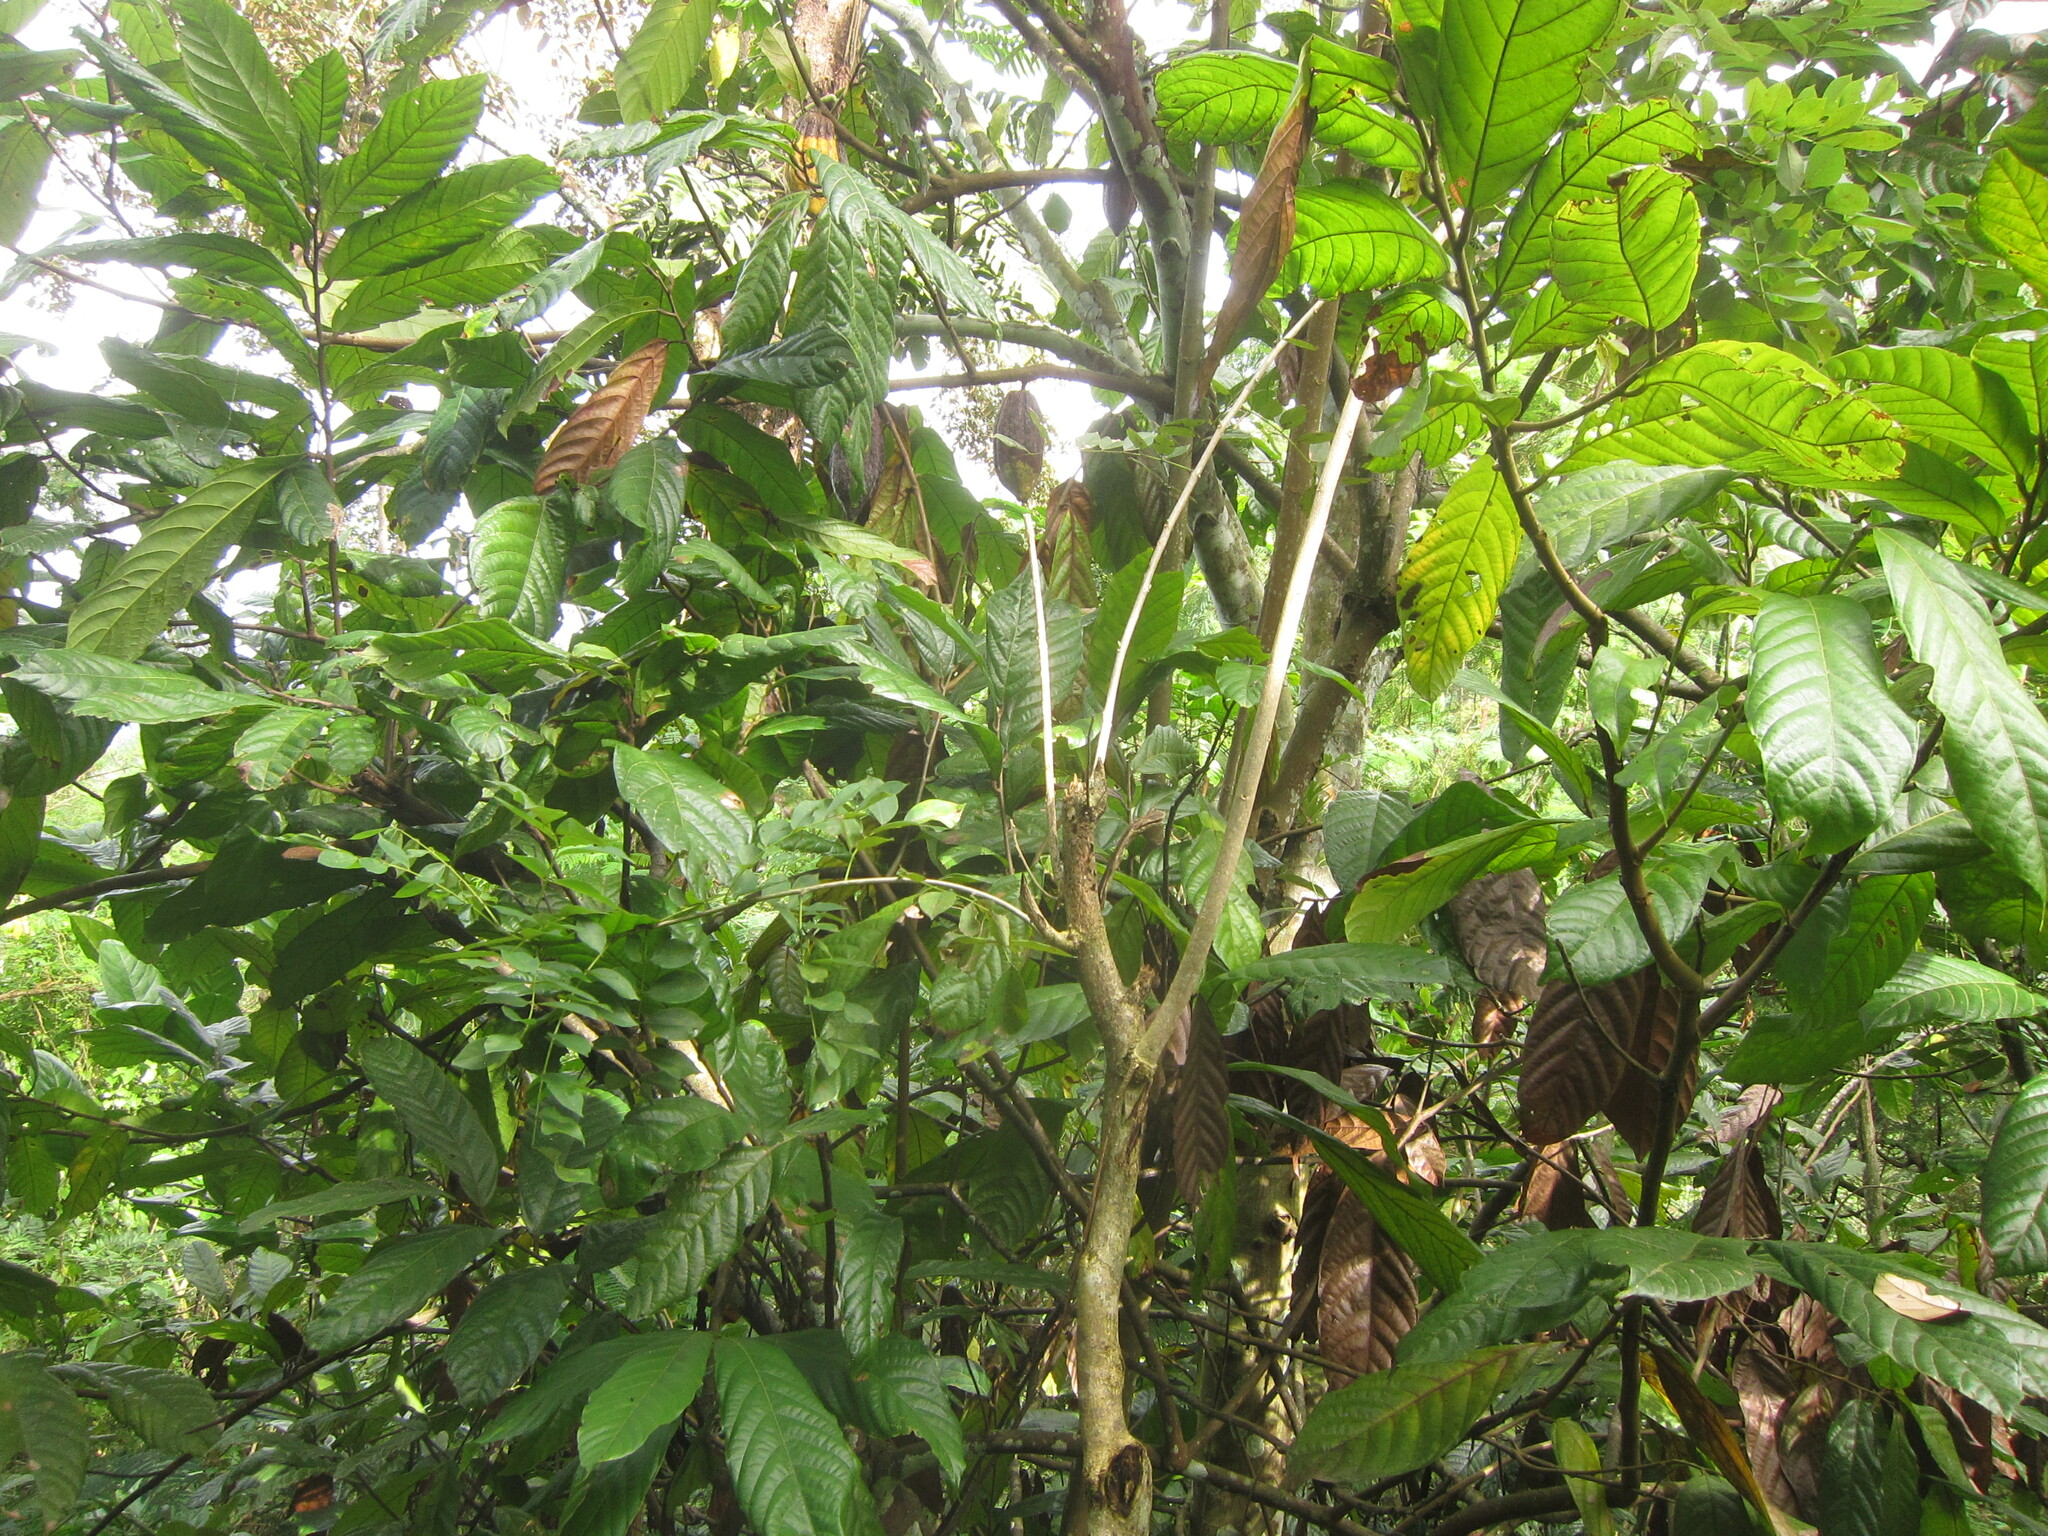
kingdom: Plantae
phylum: Tracheophyta
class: Magnoliopsida
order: Malvales
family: Malvaceae
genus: Theobroma
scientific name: Theobroma cacao
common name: Cocoa
